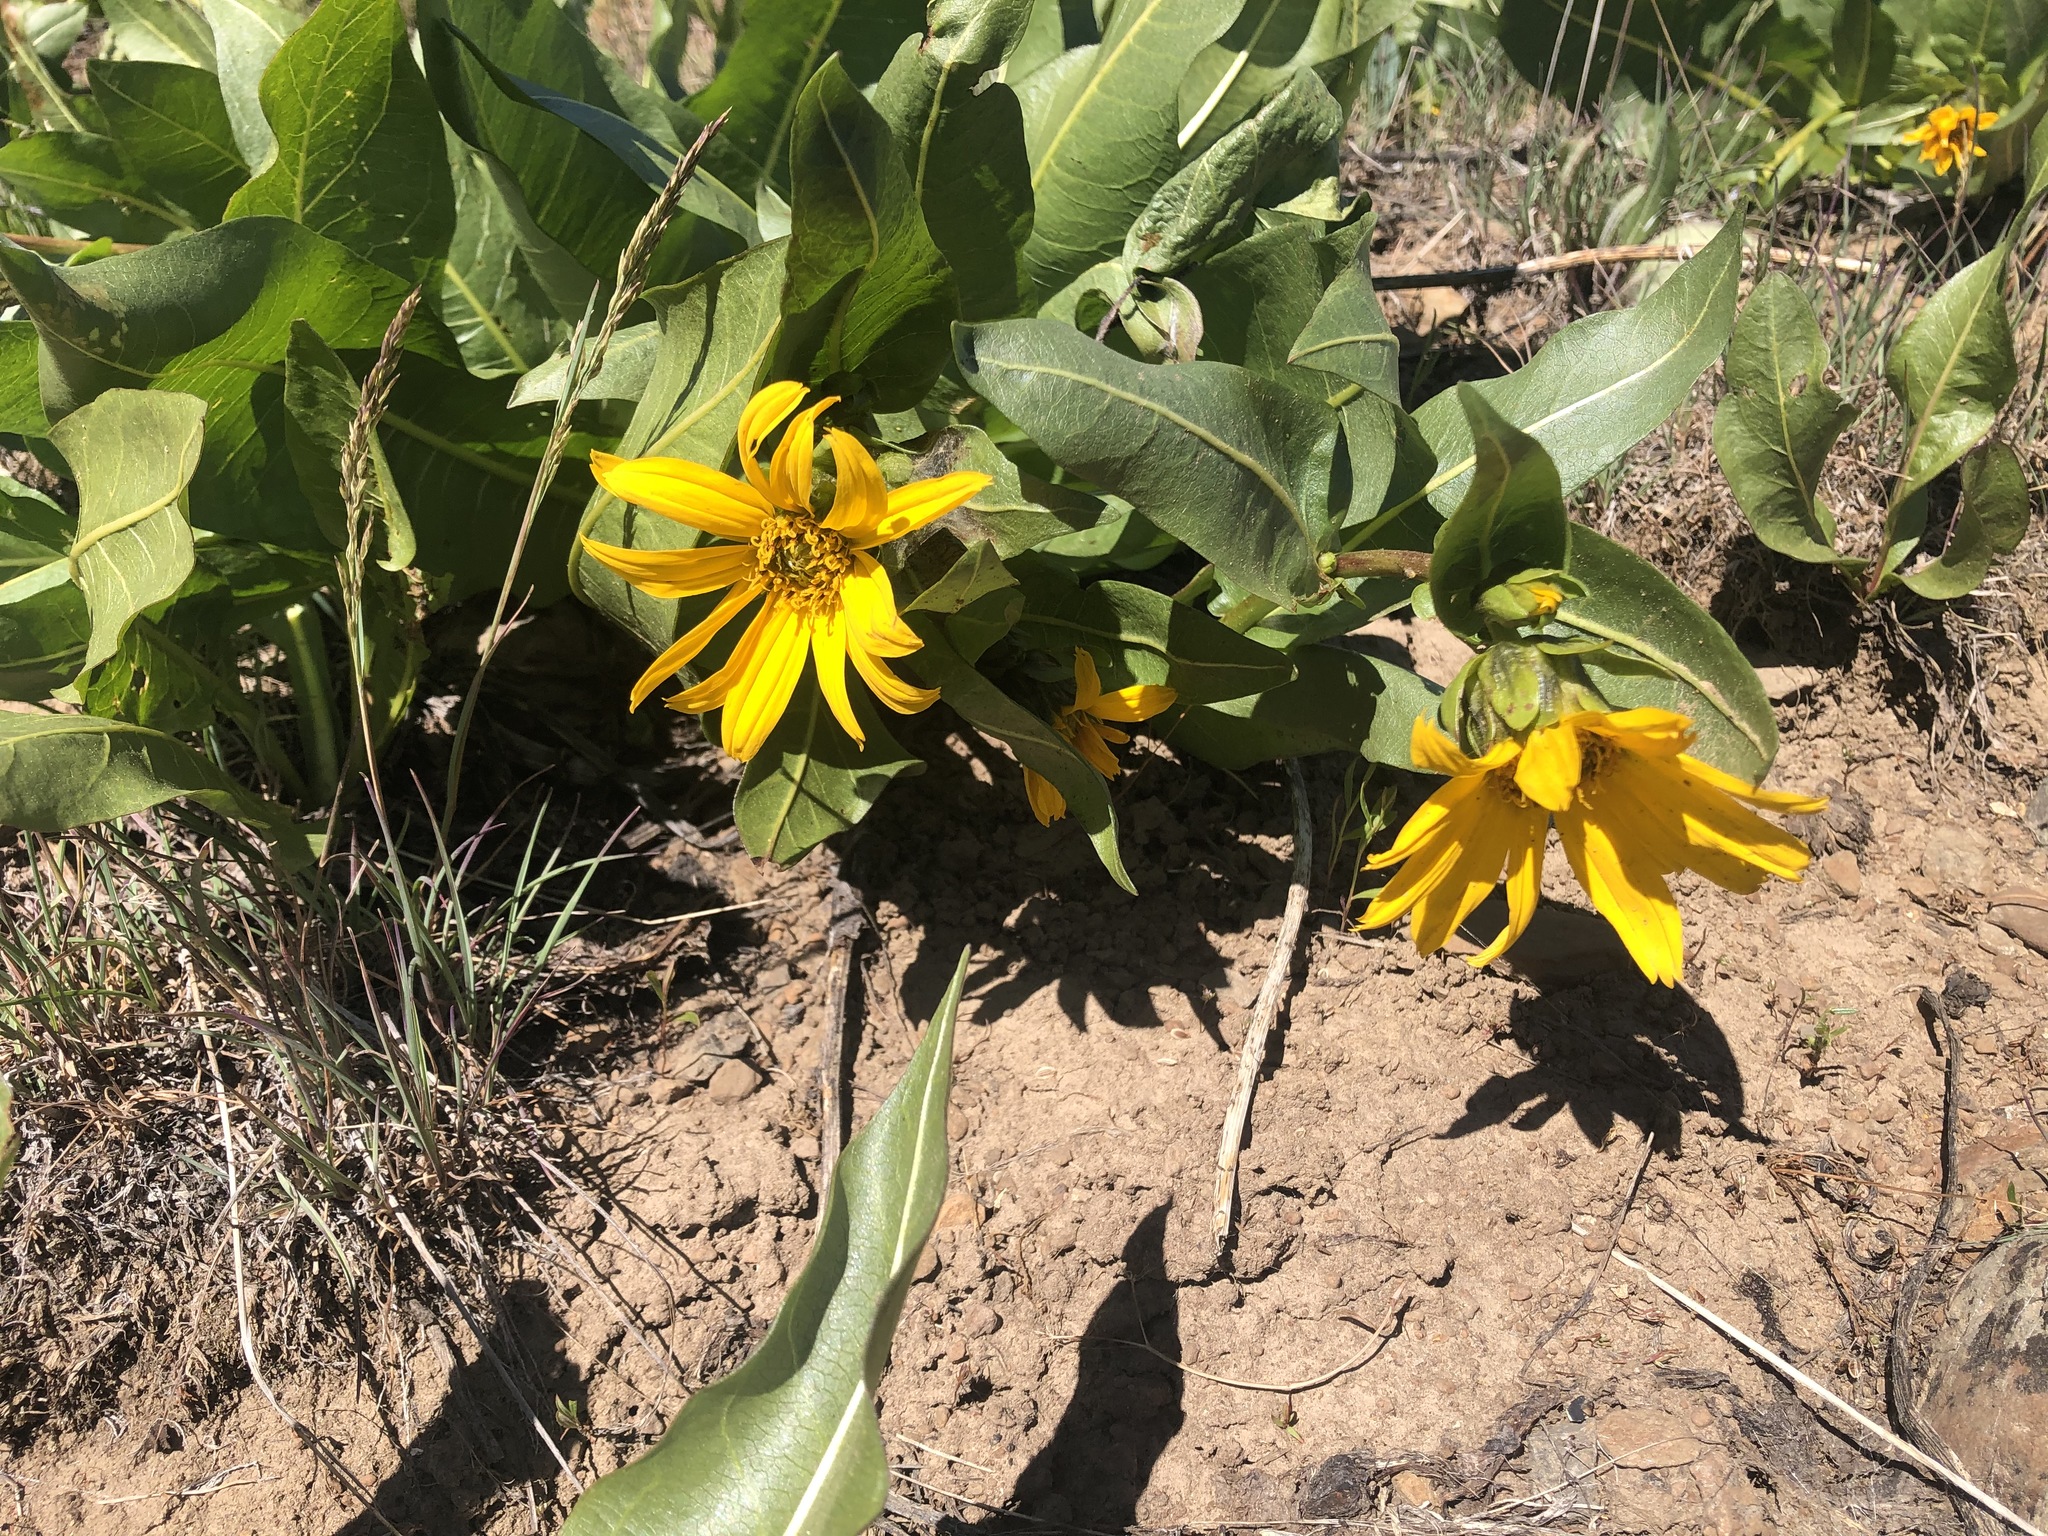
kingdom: Plantae
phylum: Tracheophyta
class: Magnoliopsida
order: Asterales
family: Asteraceae
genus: Wyethia
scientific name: Wyethia amplexicaulis
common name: Northern mule's-ears
